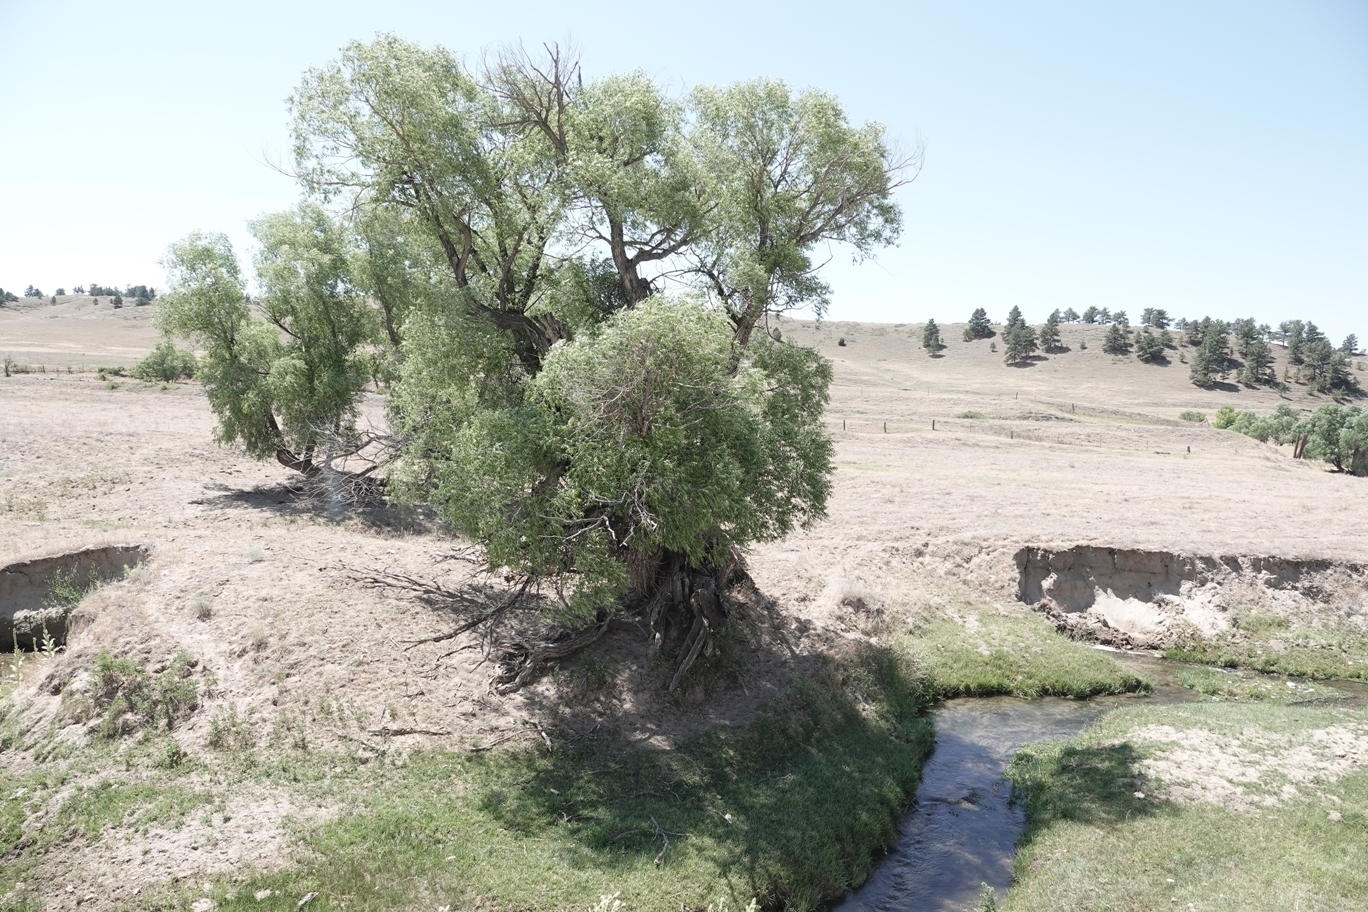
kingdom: Plantae
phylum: Tracheophyta
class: Magnoliopsida
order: Malpighiales
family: Salicaceae
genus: Salix
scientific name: Salix amygdaloides
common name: Peach leaf willow
